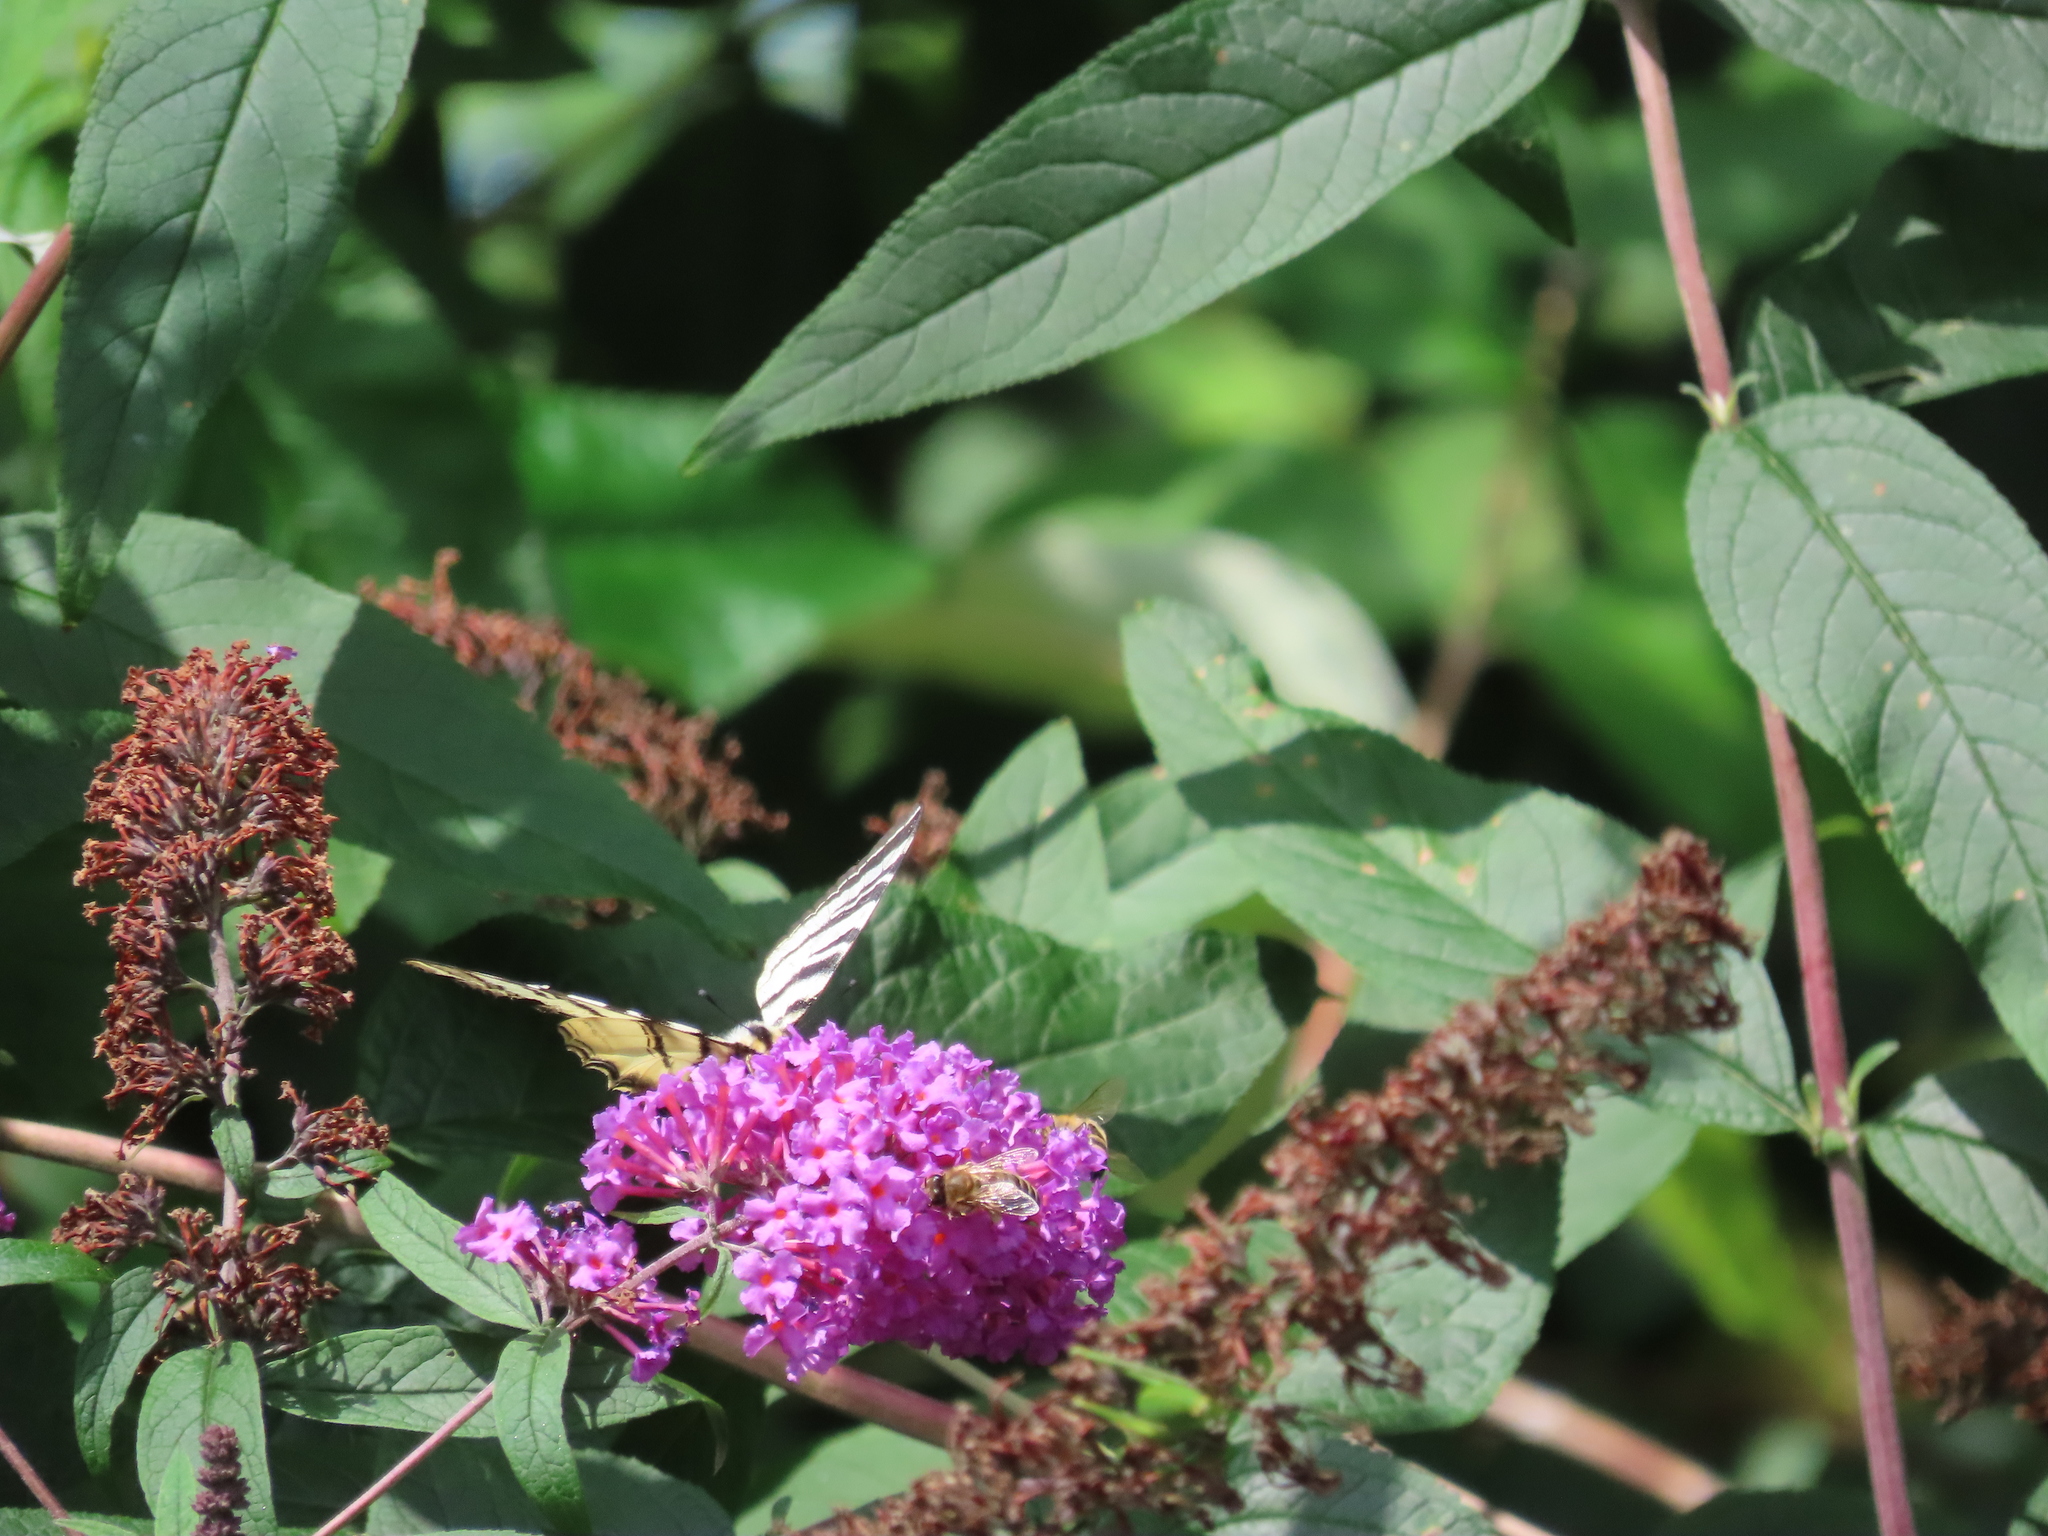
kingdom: Animalia
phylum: Arthropoda
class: Insecta
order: Lepidoptera
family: Papilionidae
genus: Iphiclides
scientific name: Iphiclides podalirius
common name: Scarce swallowtail
